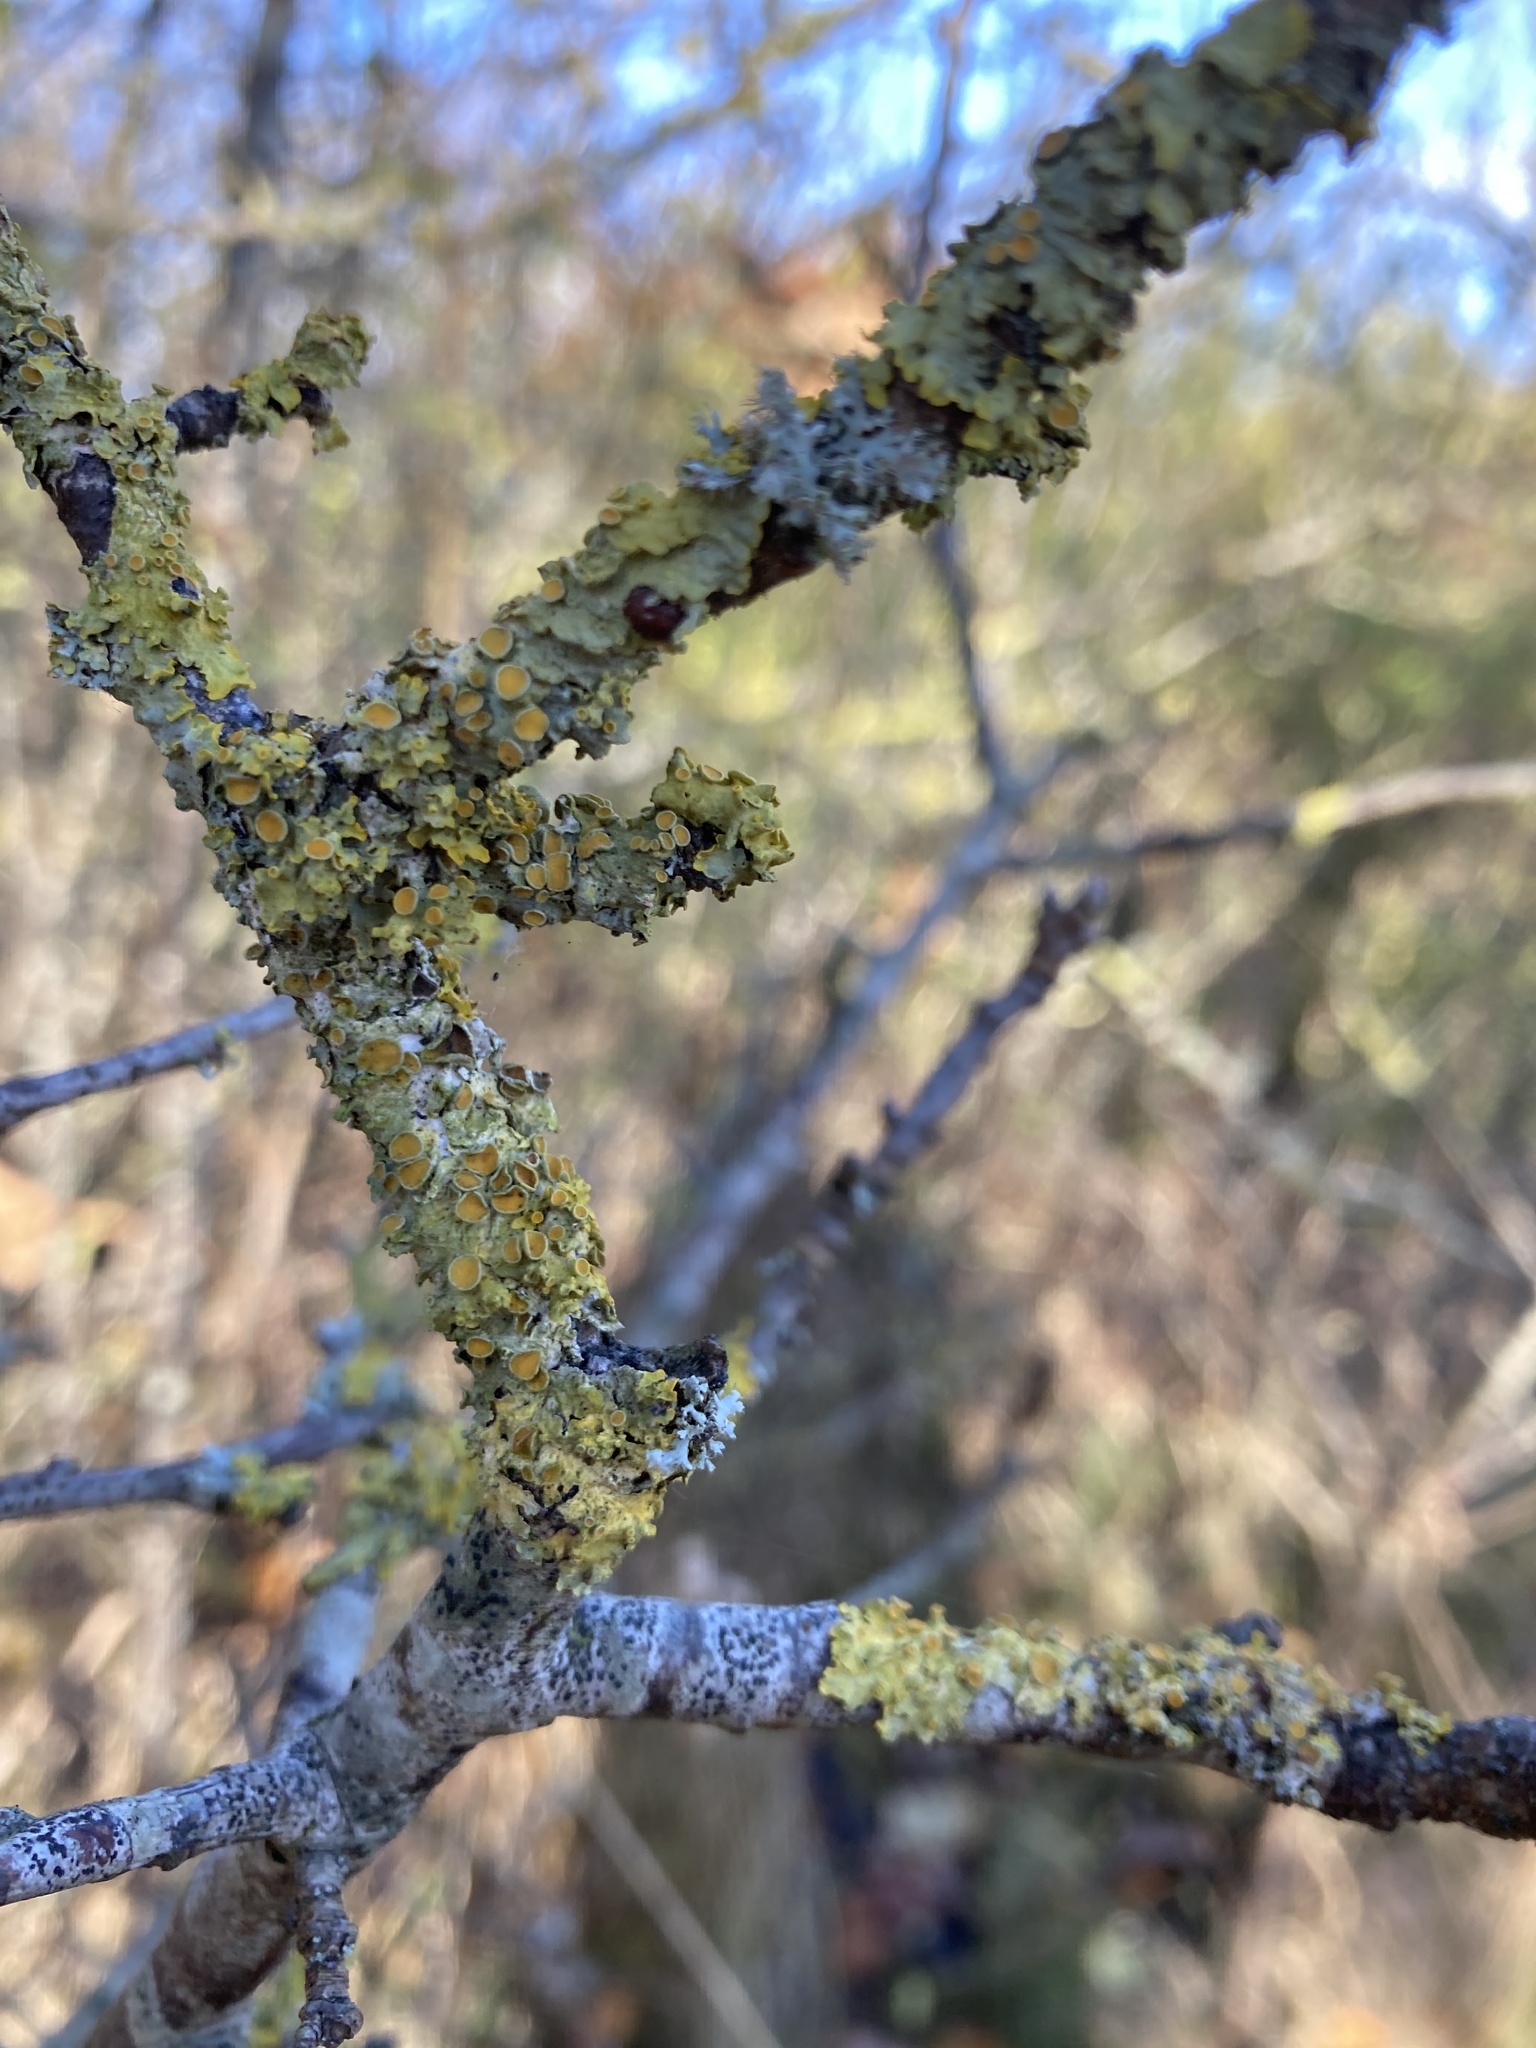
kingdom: Fungi
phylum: Ascomycota
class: Lecanoromycetes
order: Teloschistales
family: Teloschistaceae
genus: Xanthoria
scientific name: Xanthoria parietina
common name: Common orange lichen
